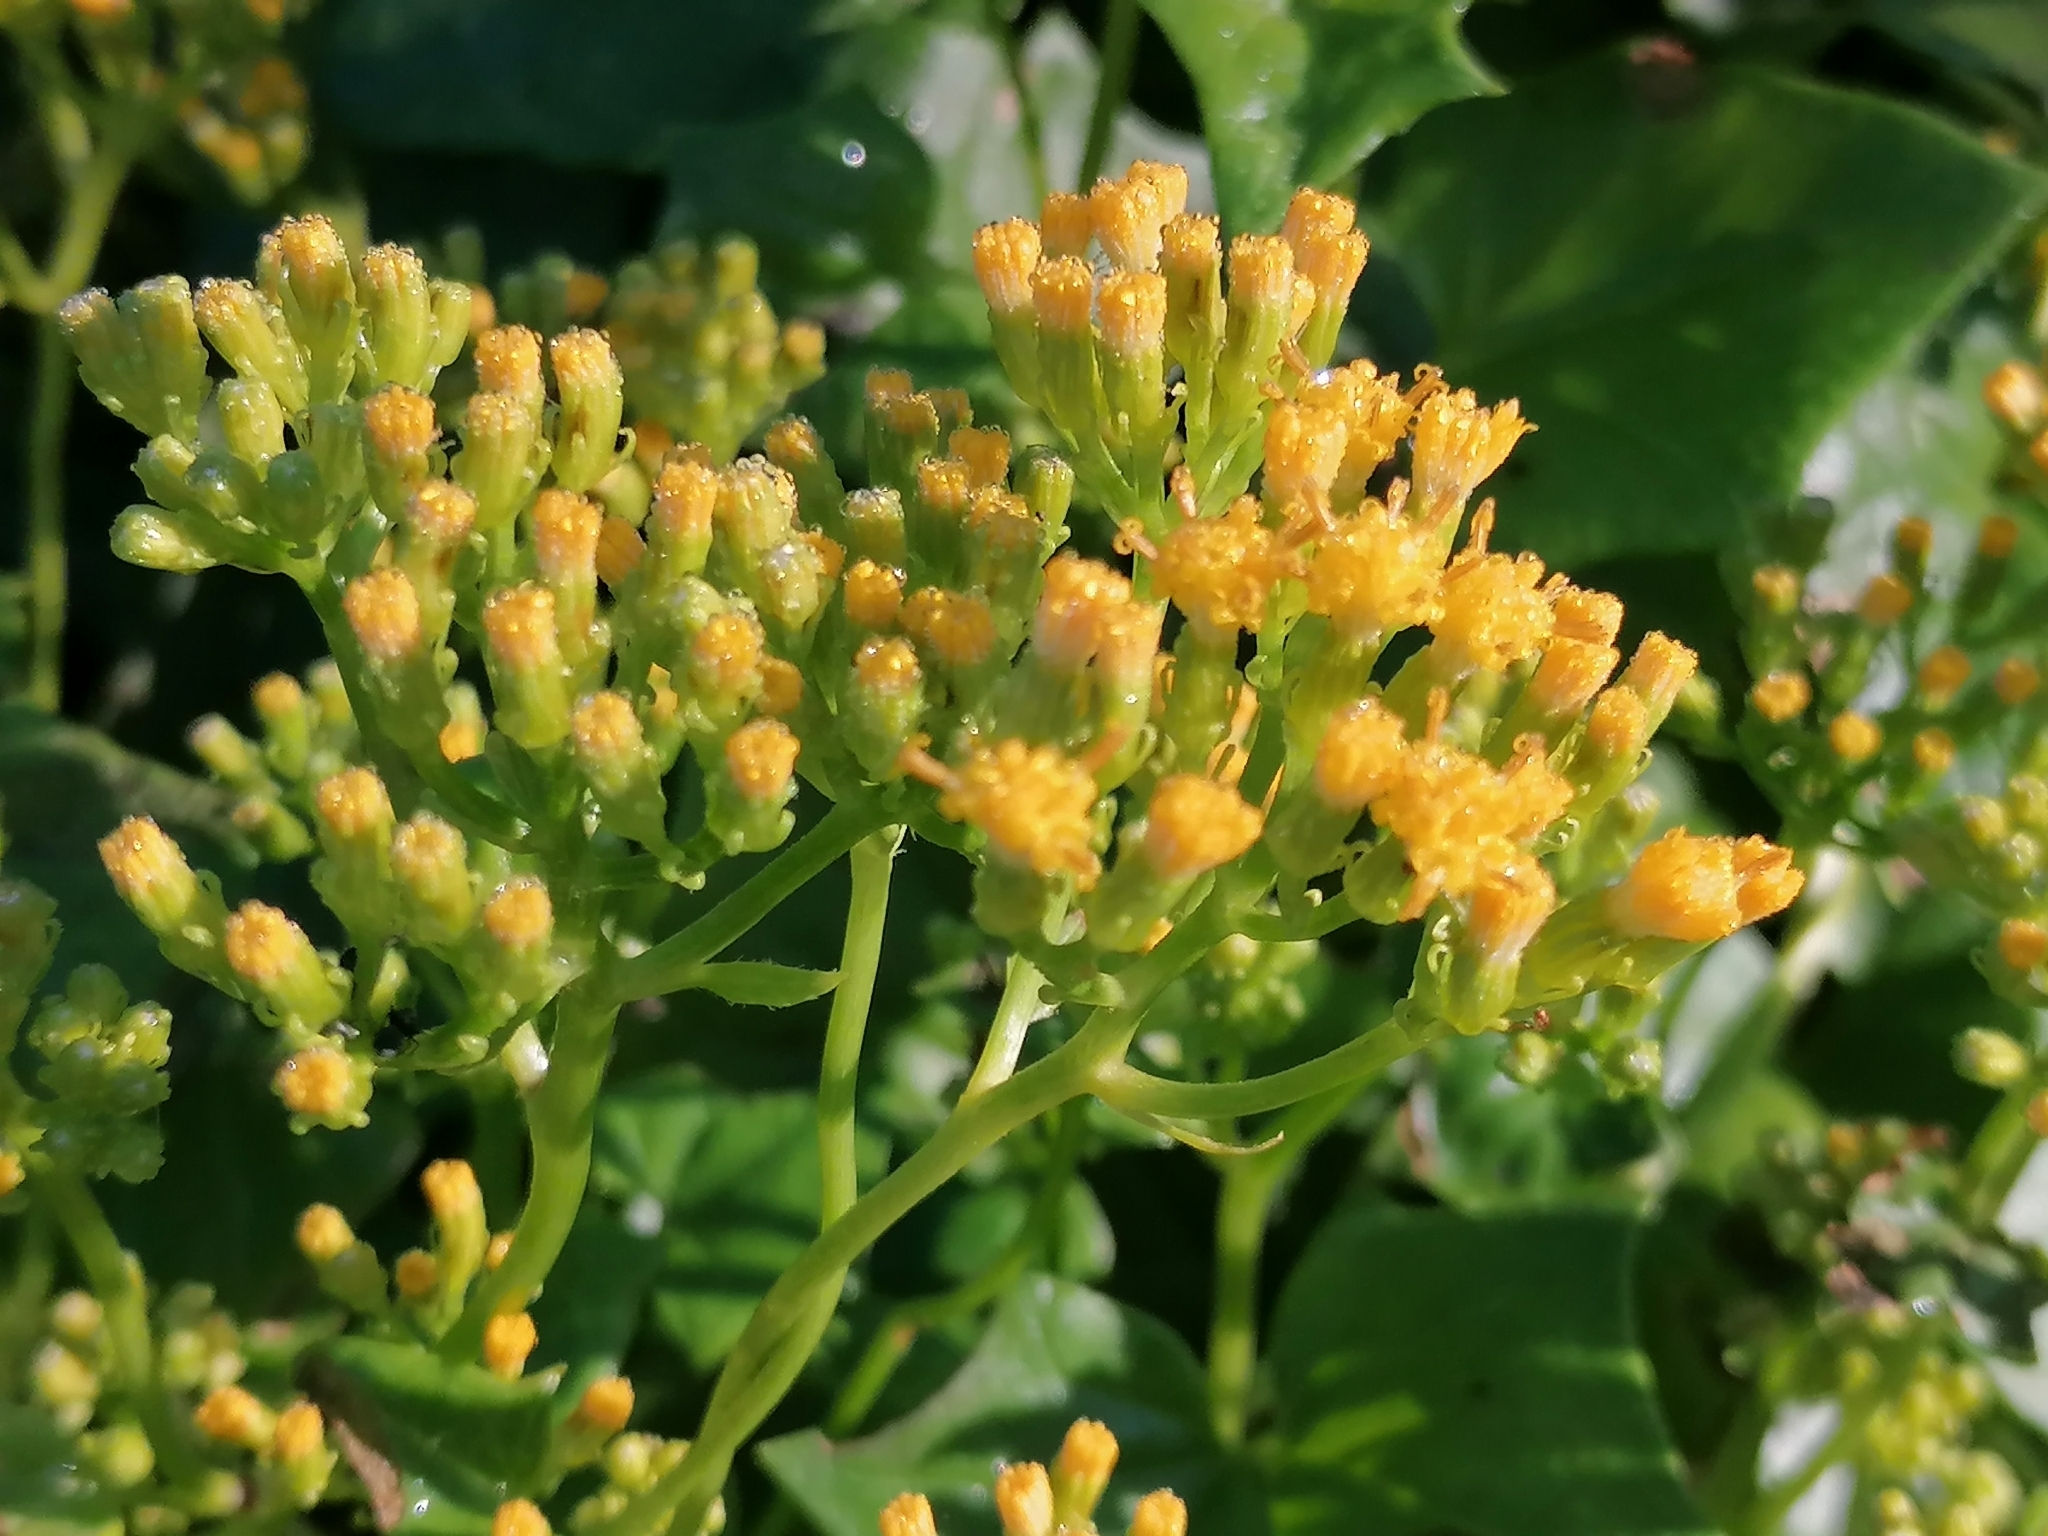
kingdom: Plantae
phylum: Tracheophyta
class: Magnoliopsida
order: Asterales
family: Asteraceae
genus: Delairea
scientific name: Delairea odorata
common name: Cape-ivy
